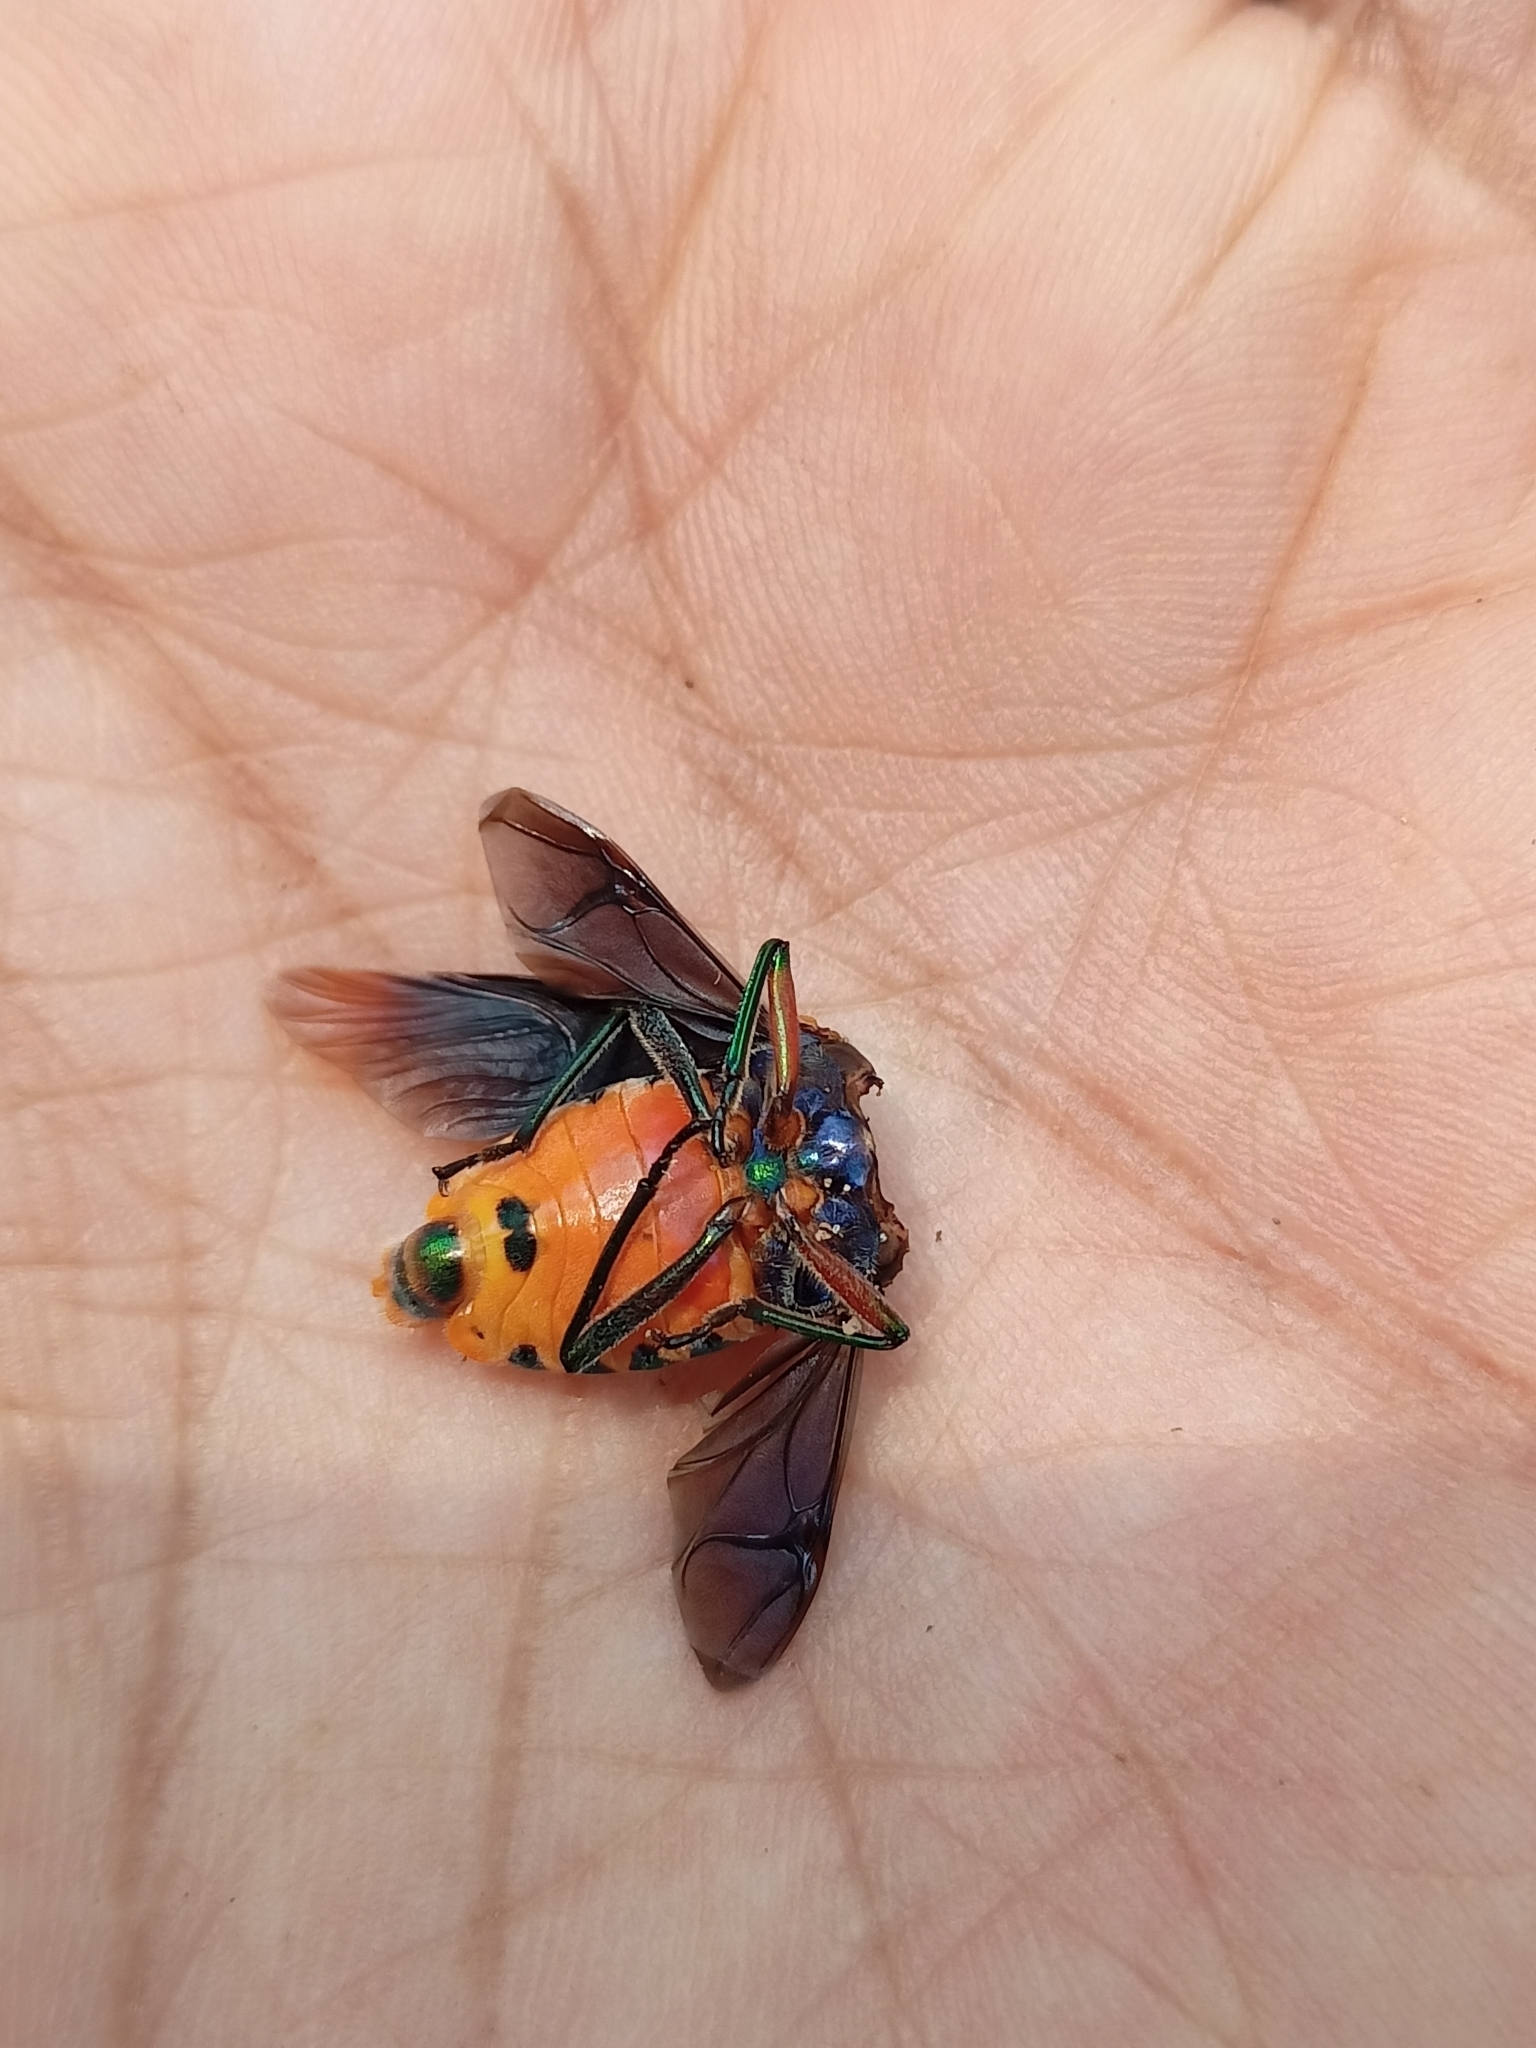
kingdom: Animalia
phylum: Arthropoda
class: Insecta
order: Hemiptera
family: Scutelleridae
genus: Cantao
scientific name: Cantao ocellatus
